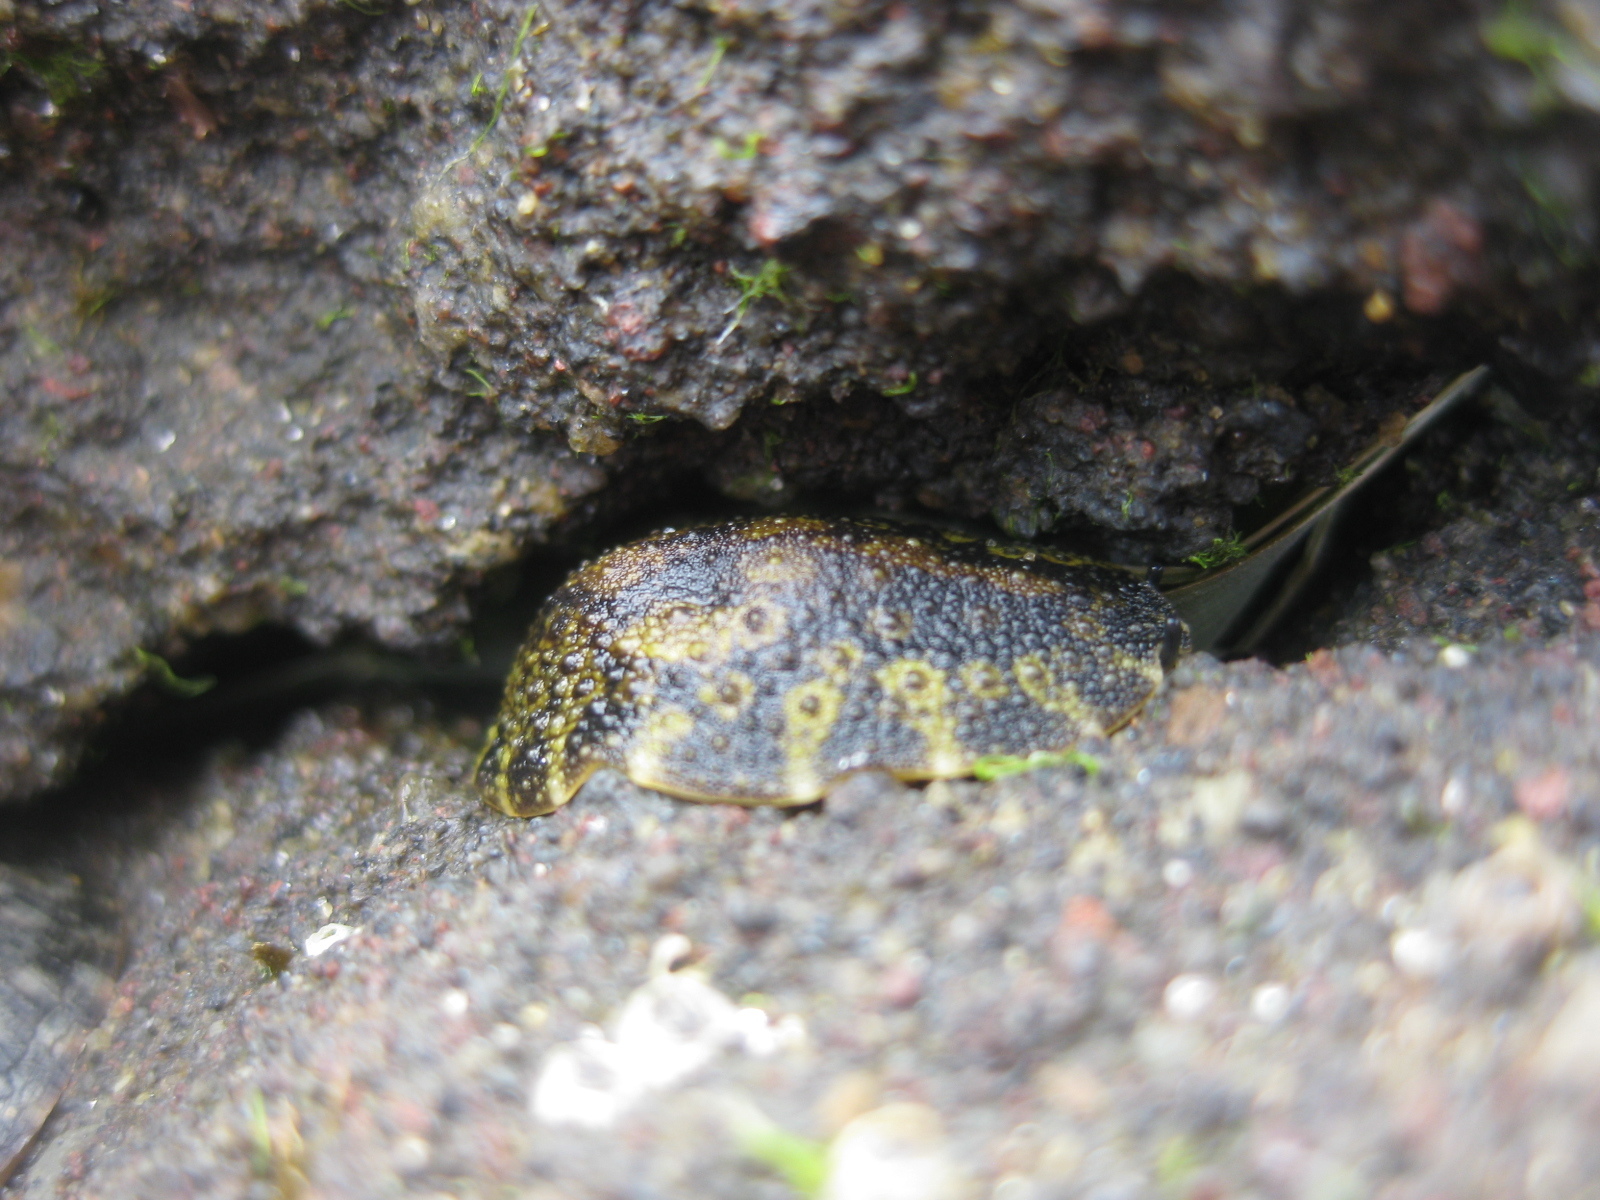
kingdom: Animalia
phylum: Mollusca
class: Gastropoda
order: Systellommatophora
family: Onchidiidae
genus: Onchidella
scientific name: Onchidella nigricans
